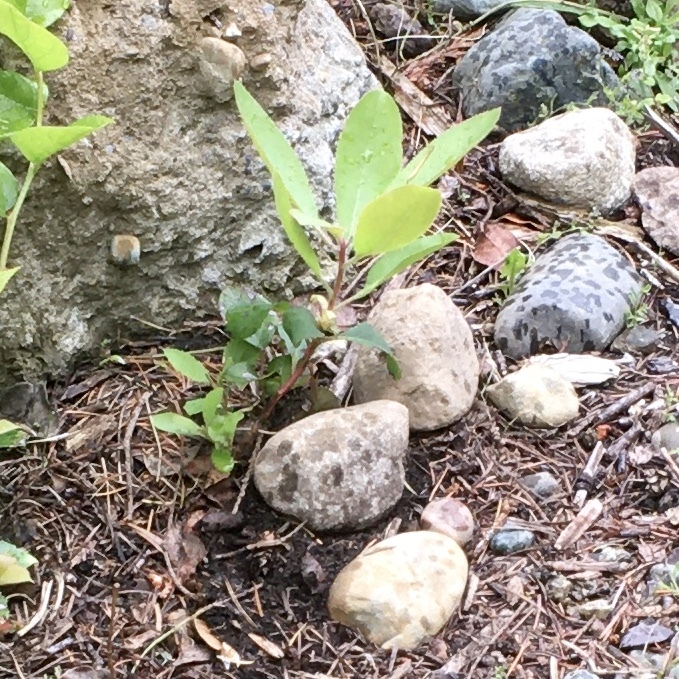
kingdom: Plantae
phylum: Tracheophyta
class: Magnoliopsida
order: Ericales
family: Ericaceae
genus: Arbutus
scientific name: Arbutus menziesii
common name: Pacific madrone
